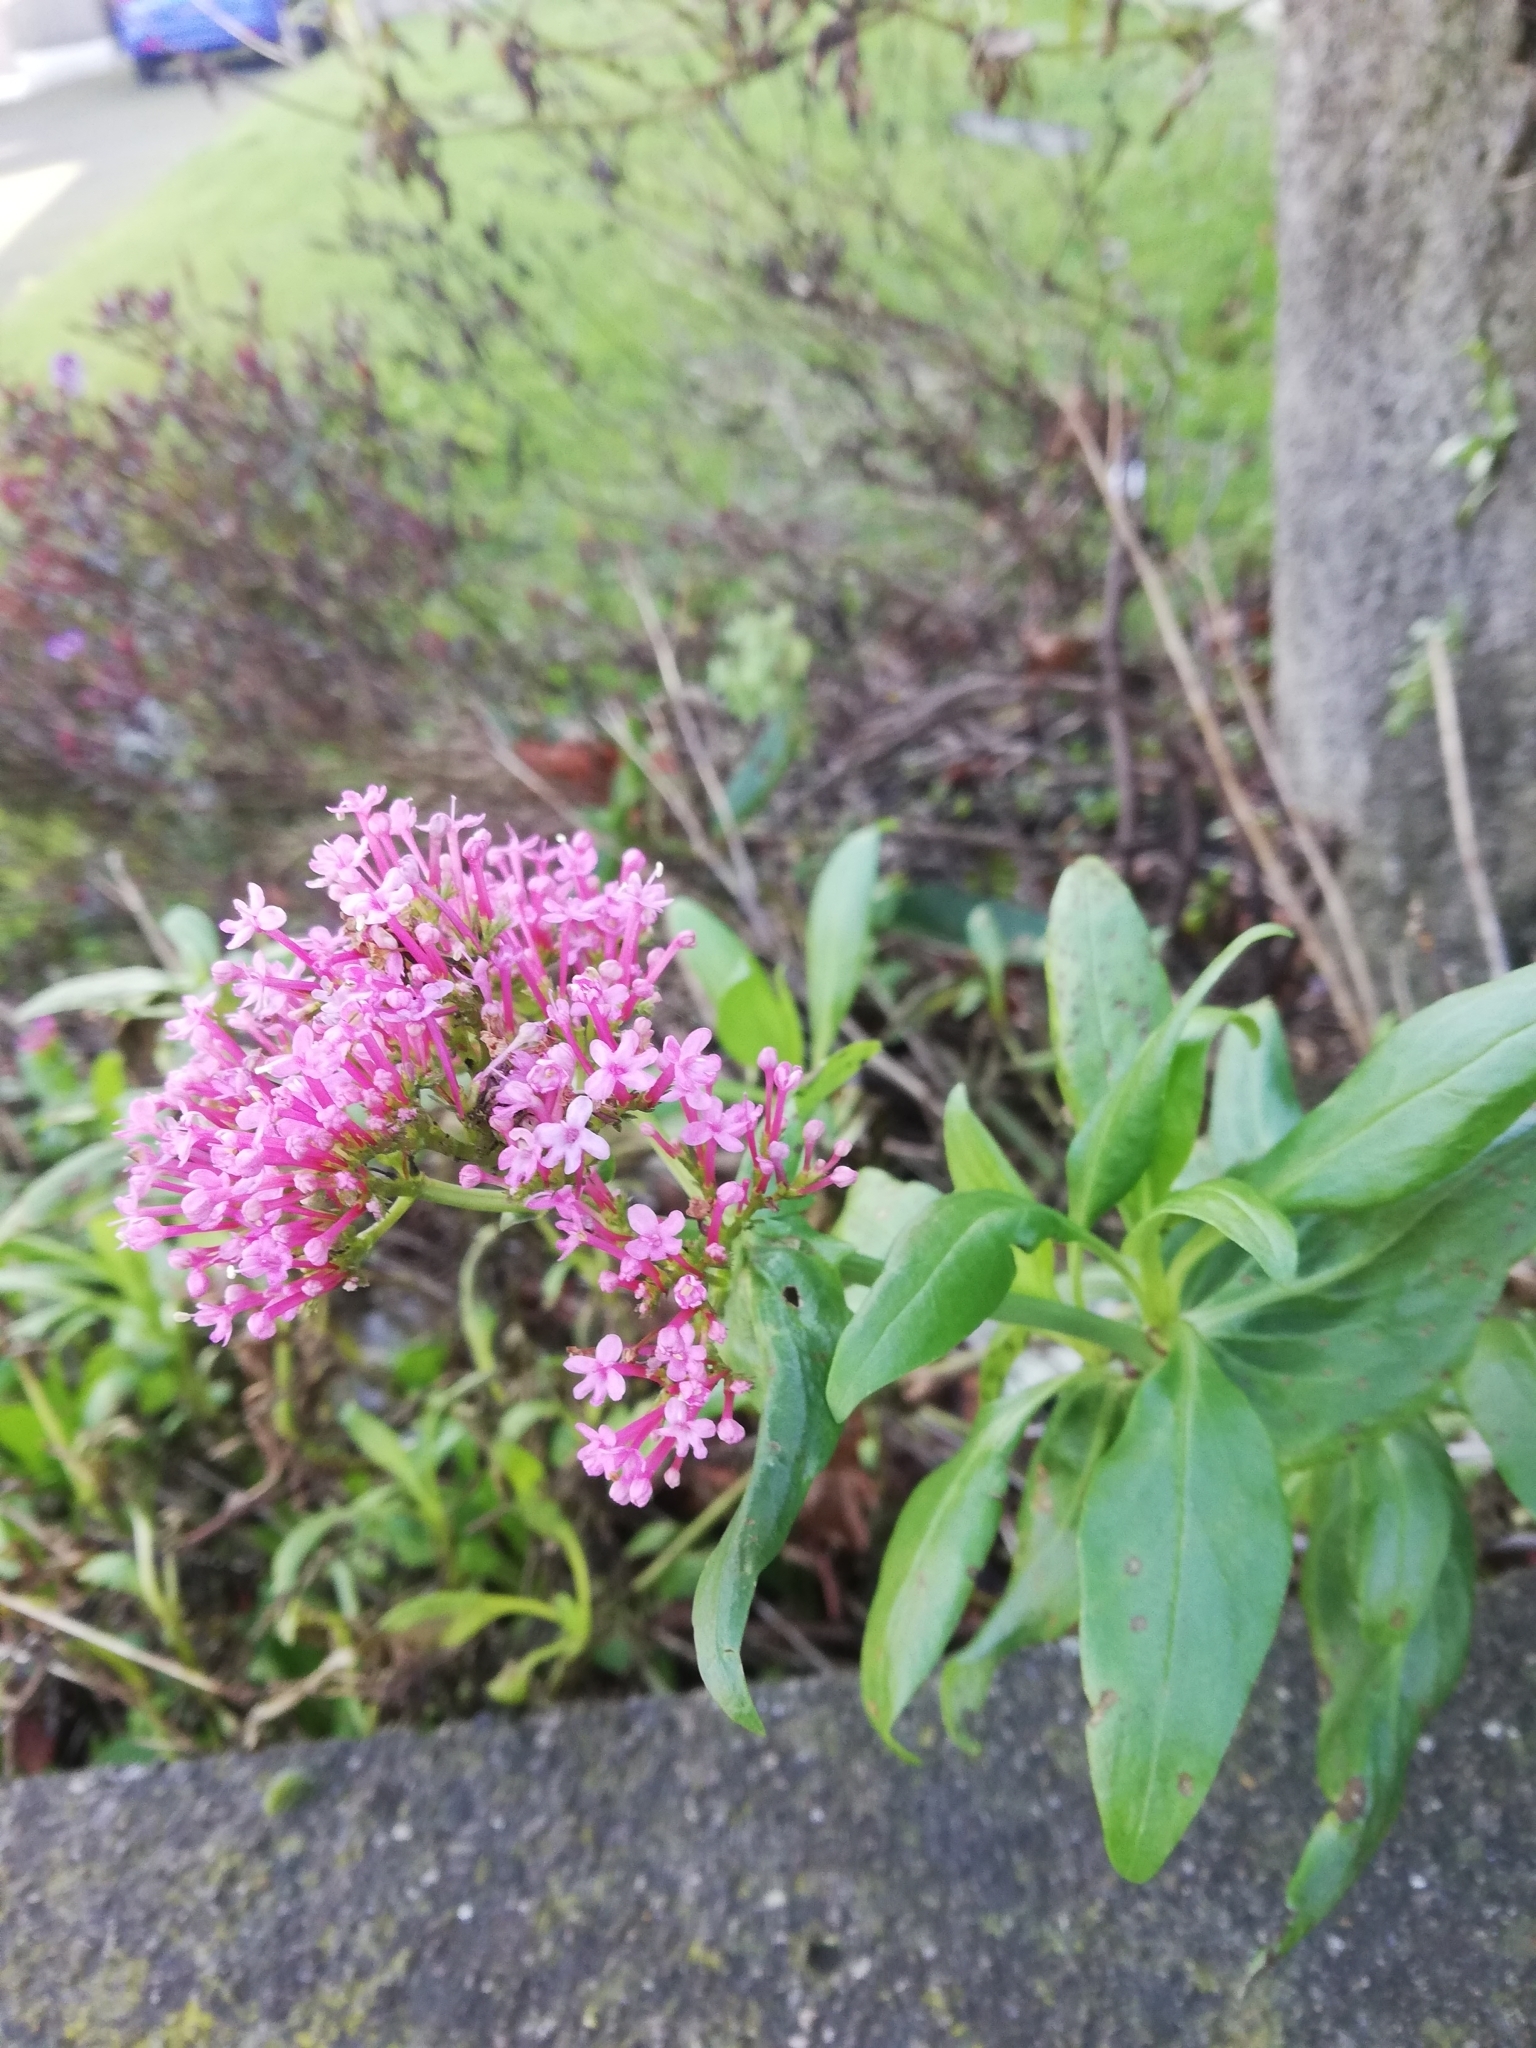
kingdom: Plantae
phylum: Tracheophyta
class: Magnoliopsida
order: Dipsacales
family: Caprifoliaceae
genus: Centranthus
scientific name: Centranthus ruber
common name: Red valerian
